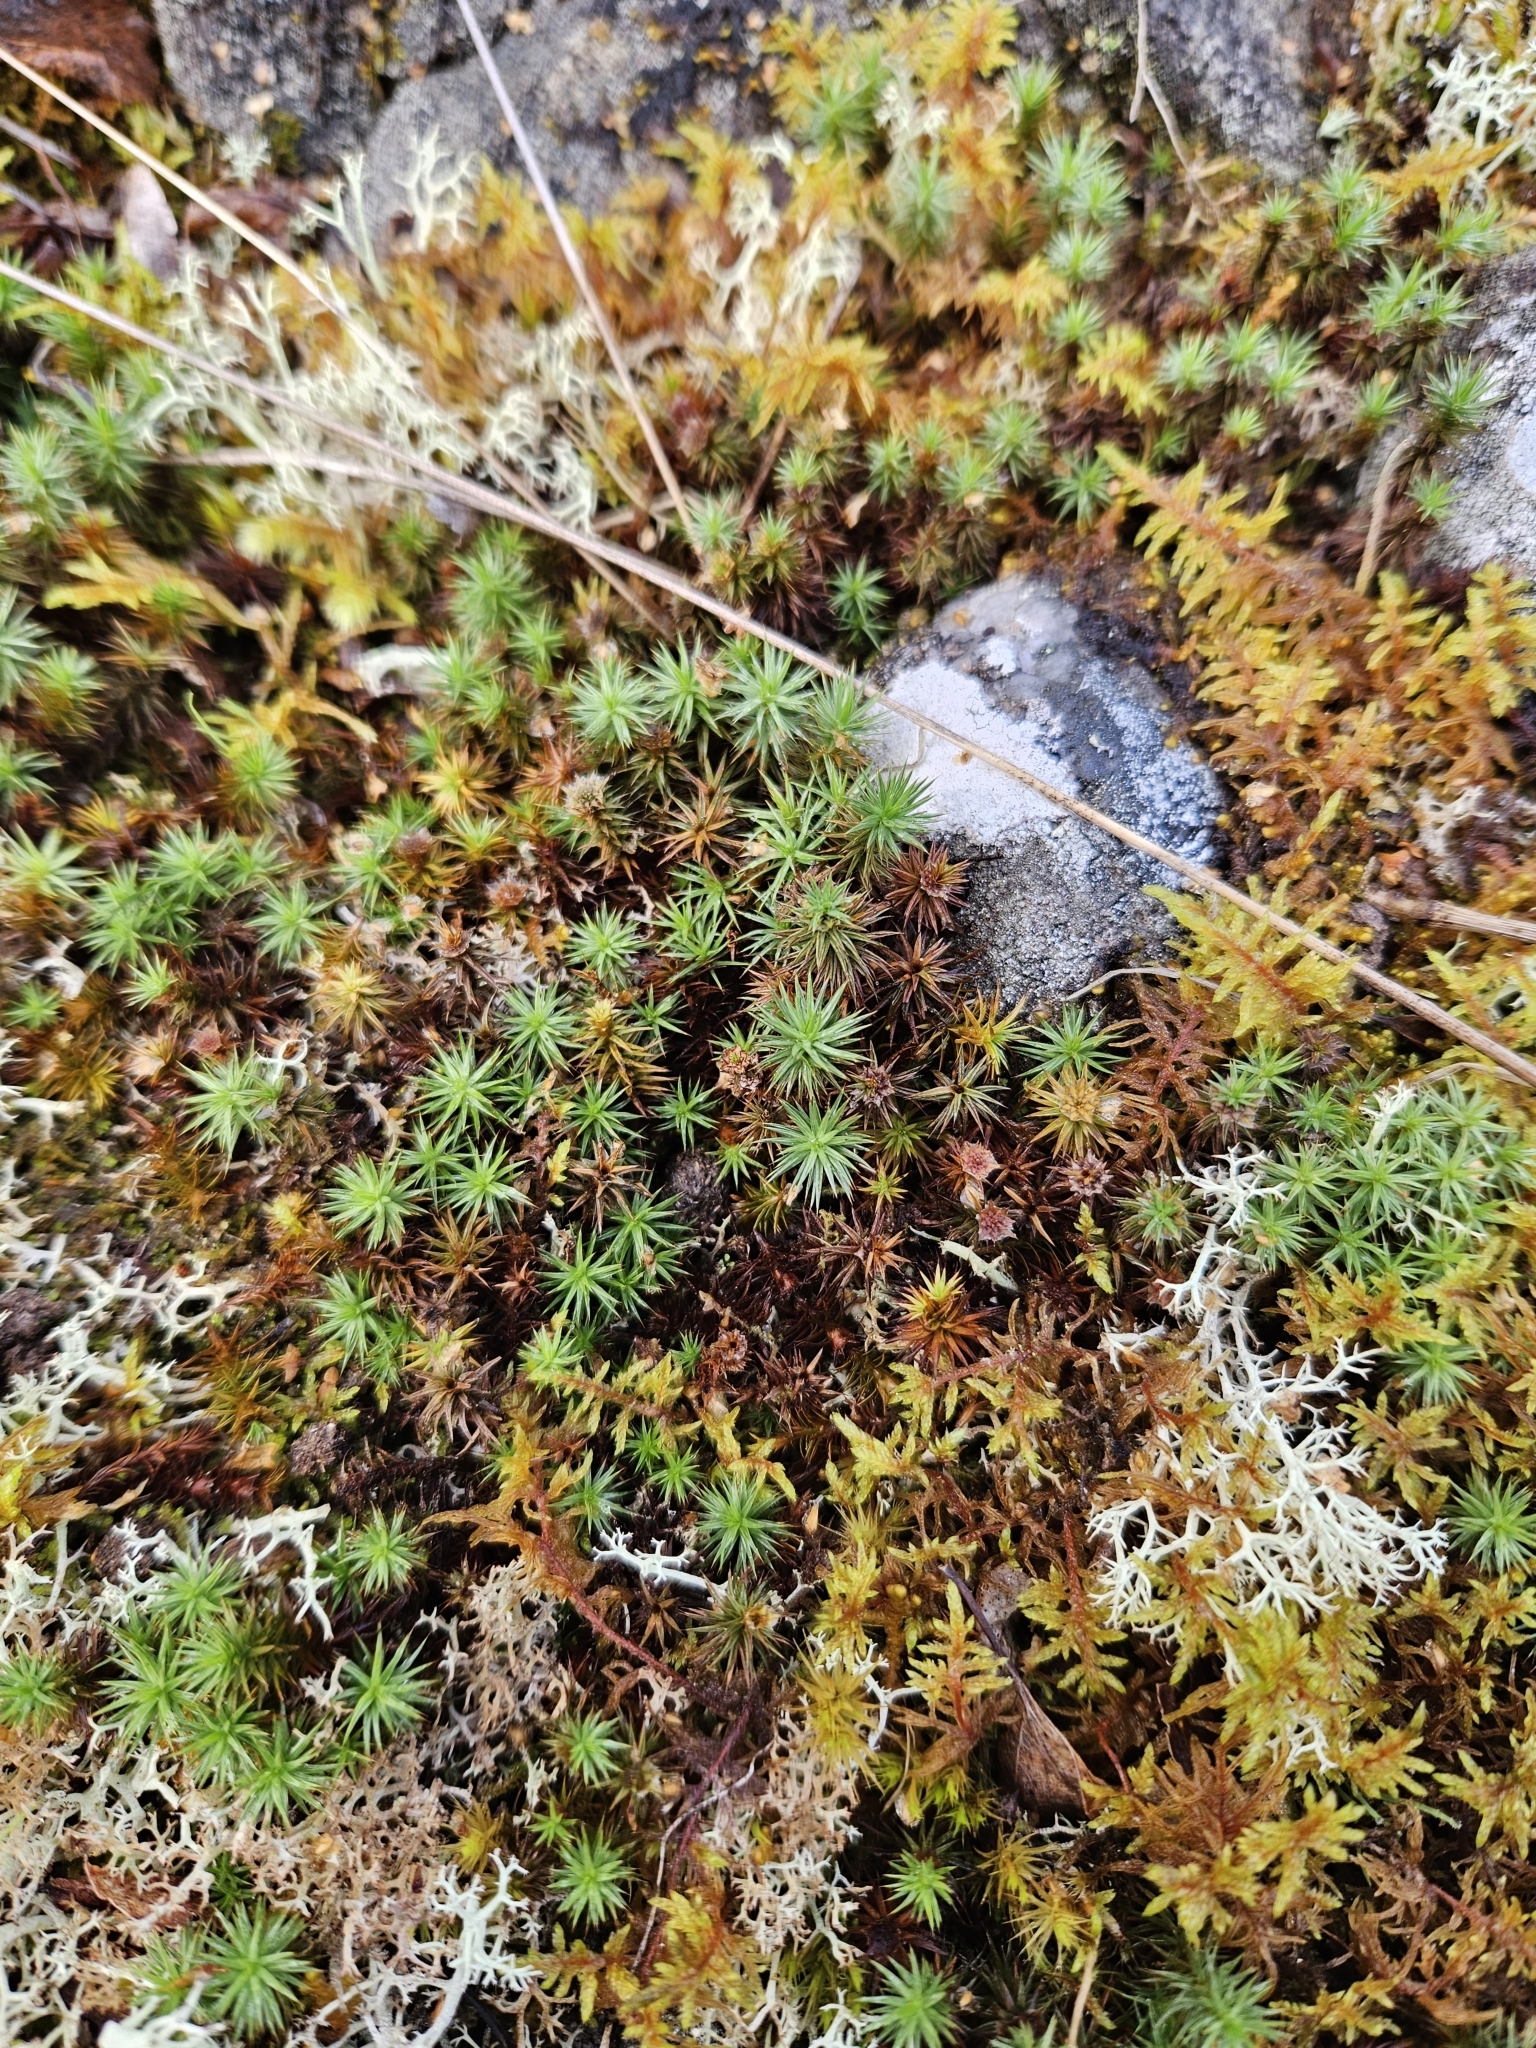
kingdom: Plantae
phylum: Bryophyta
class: Polytrichopsida
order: Polytrichales
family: Polytrichaceae
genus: Polytrichum
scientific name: Polytrichum juniperinum
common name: Juniper haircap moss
